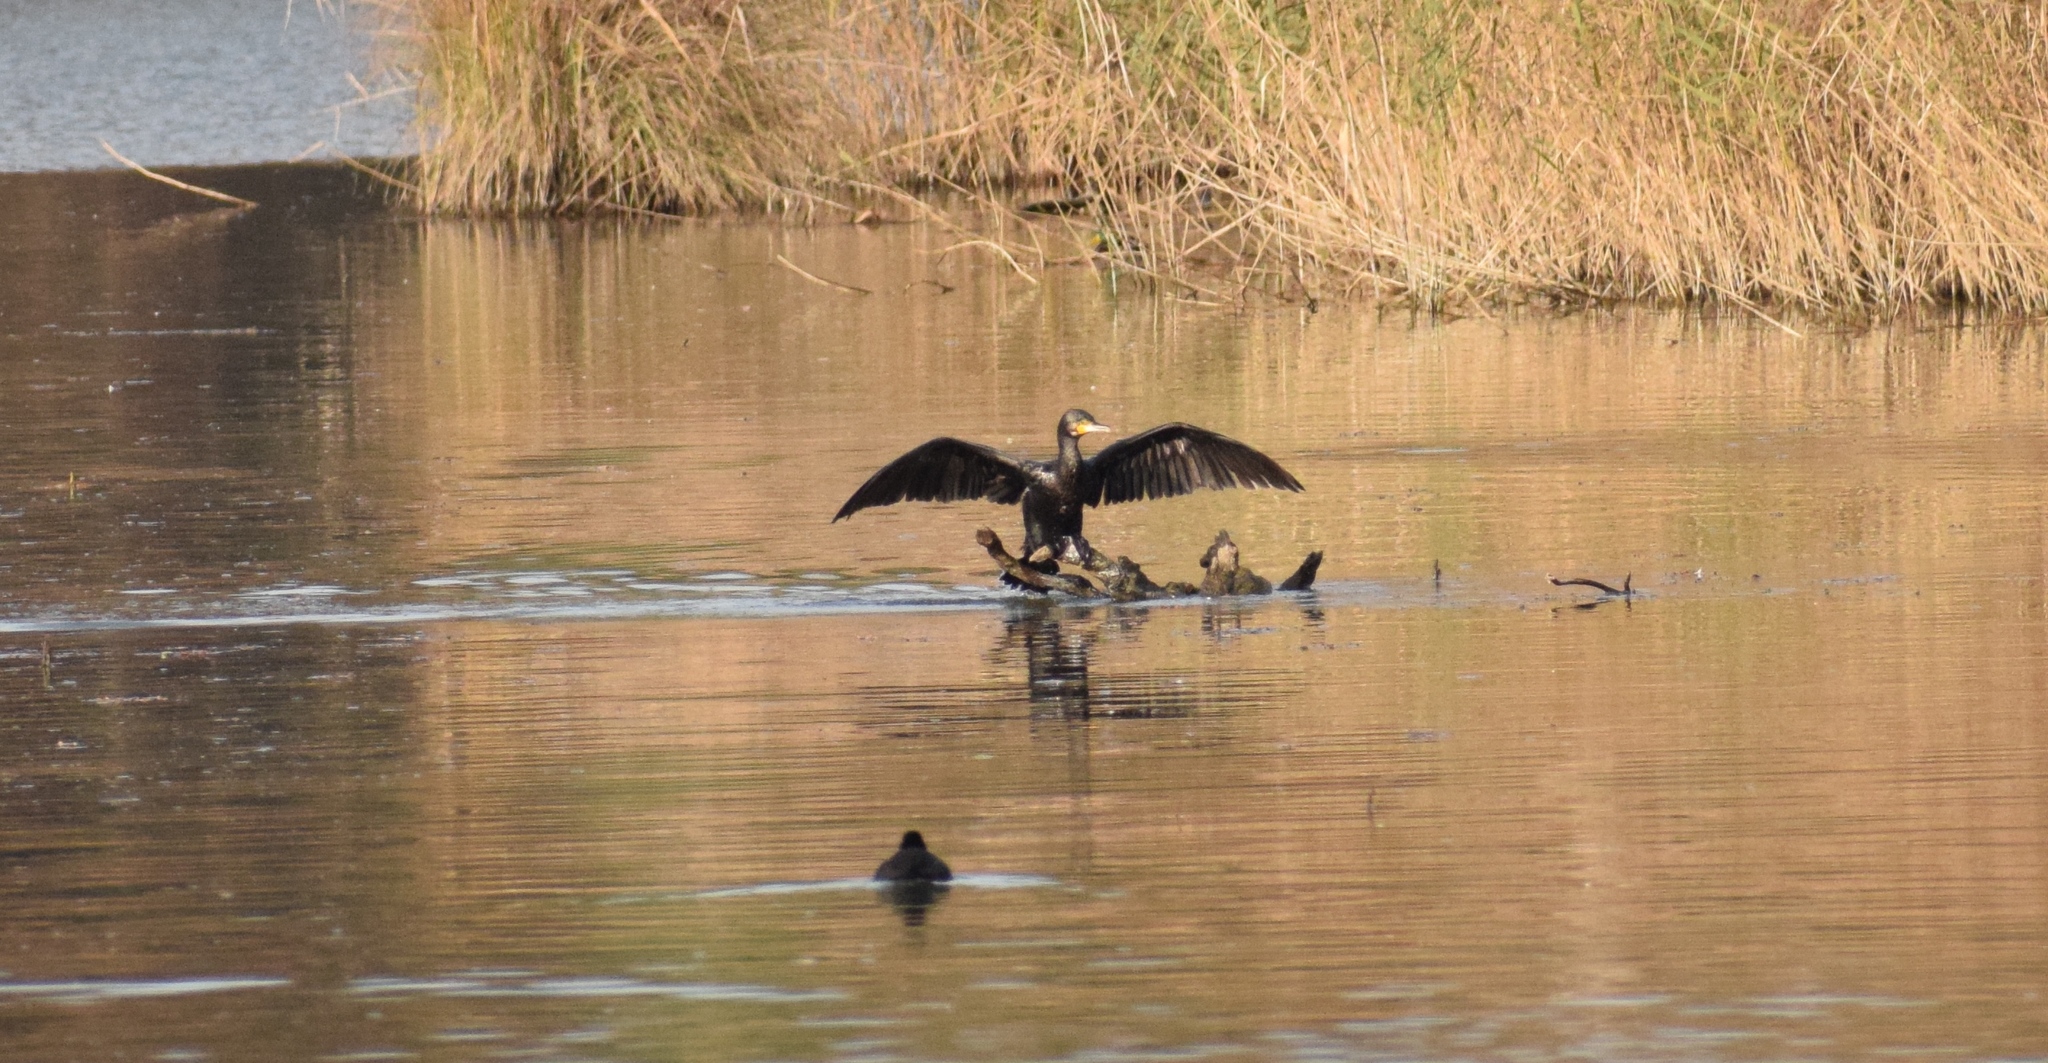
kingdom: Animalia
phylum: Chordata
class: Aves
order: Suliformes
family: Phalacrocoracidae
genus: Phalacrocorax
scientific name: Phalacrocorax carbo
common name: Great cormorant
